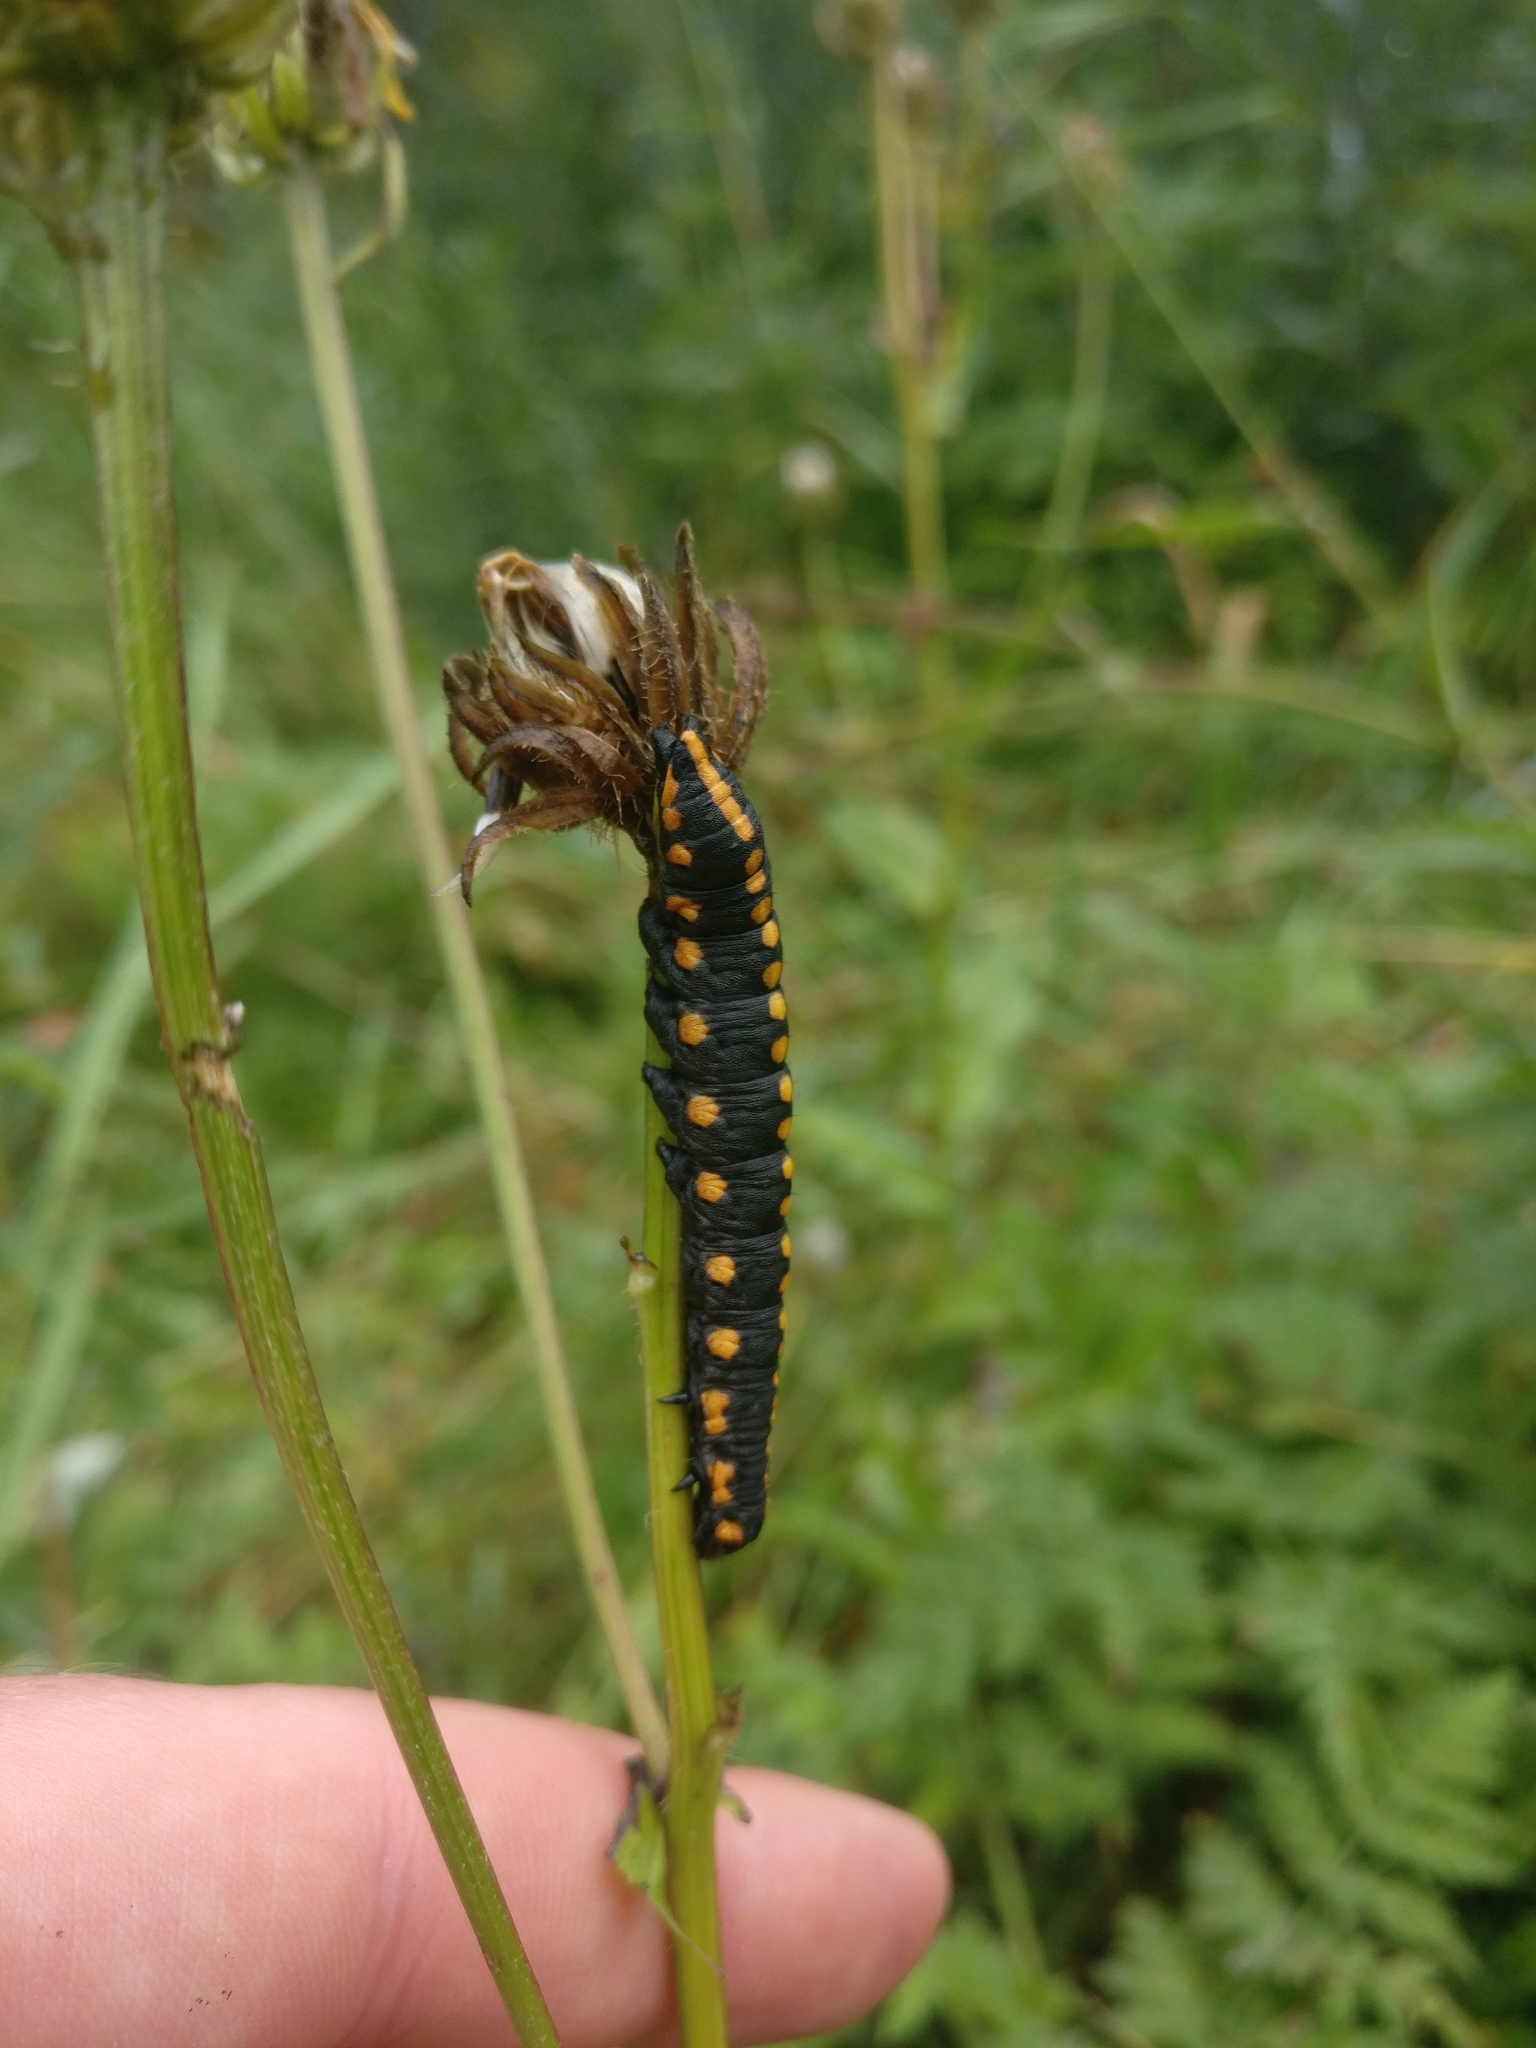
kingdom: Animalia
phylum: Arthropoda
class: Insecta
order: Lepidoptera
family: Noctuidae
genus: Cucullia
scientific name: Cucullia lucifuga
